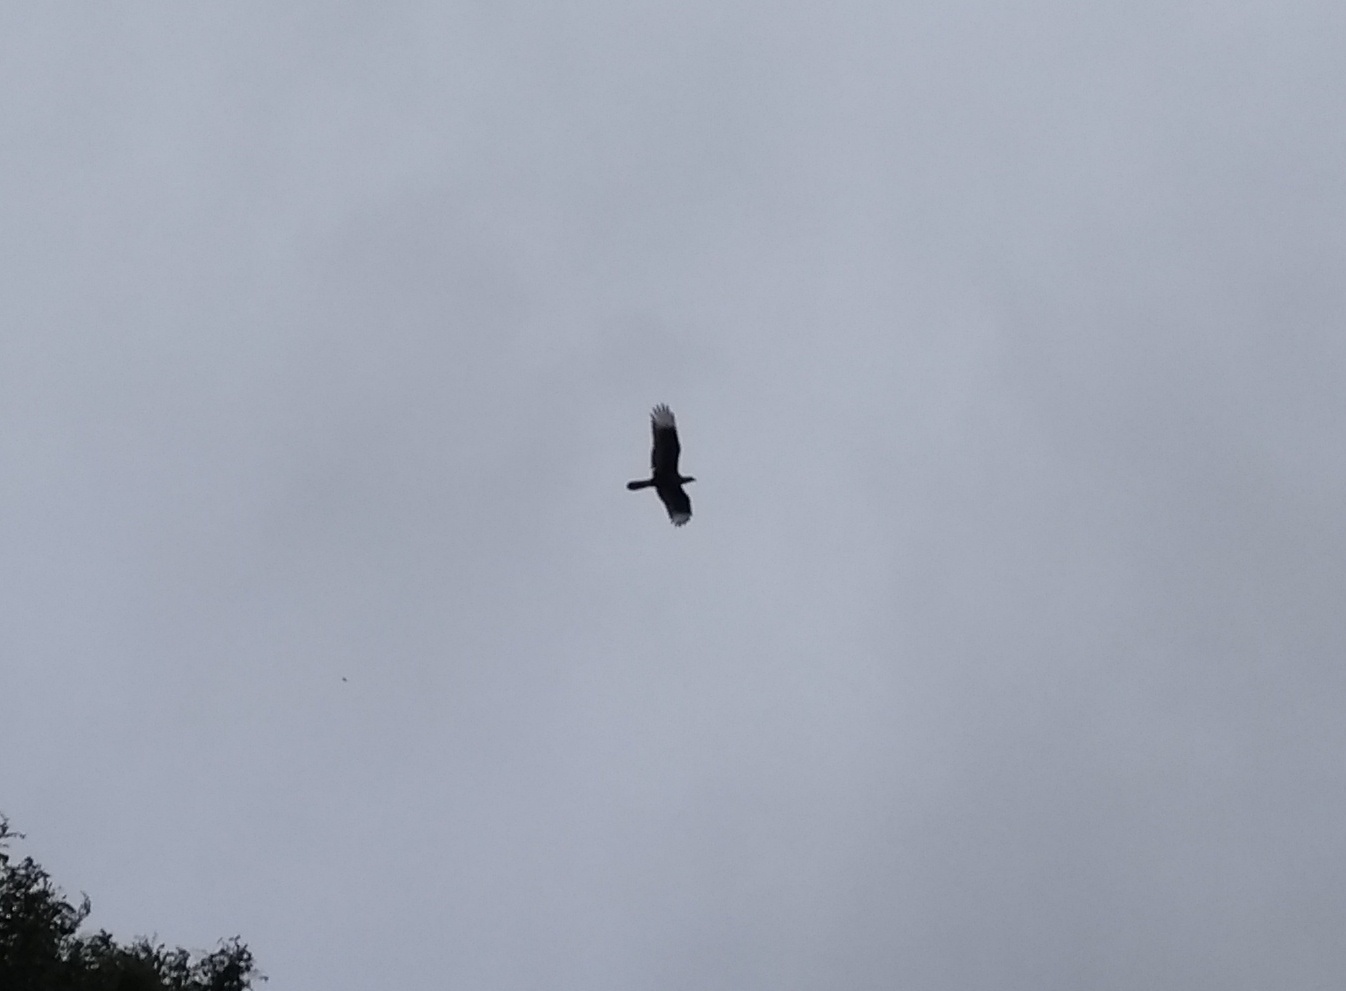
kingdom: Animalia
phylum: Chordata
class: Aves
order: Falconiformes
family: Falconidae
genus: Caracara
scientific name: Caracara plancus
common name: Southern caracara
